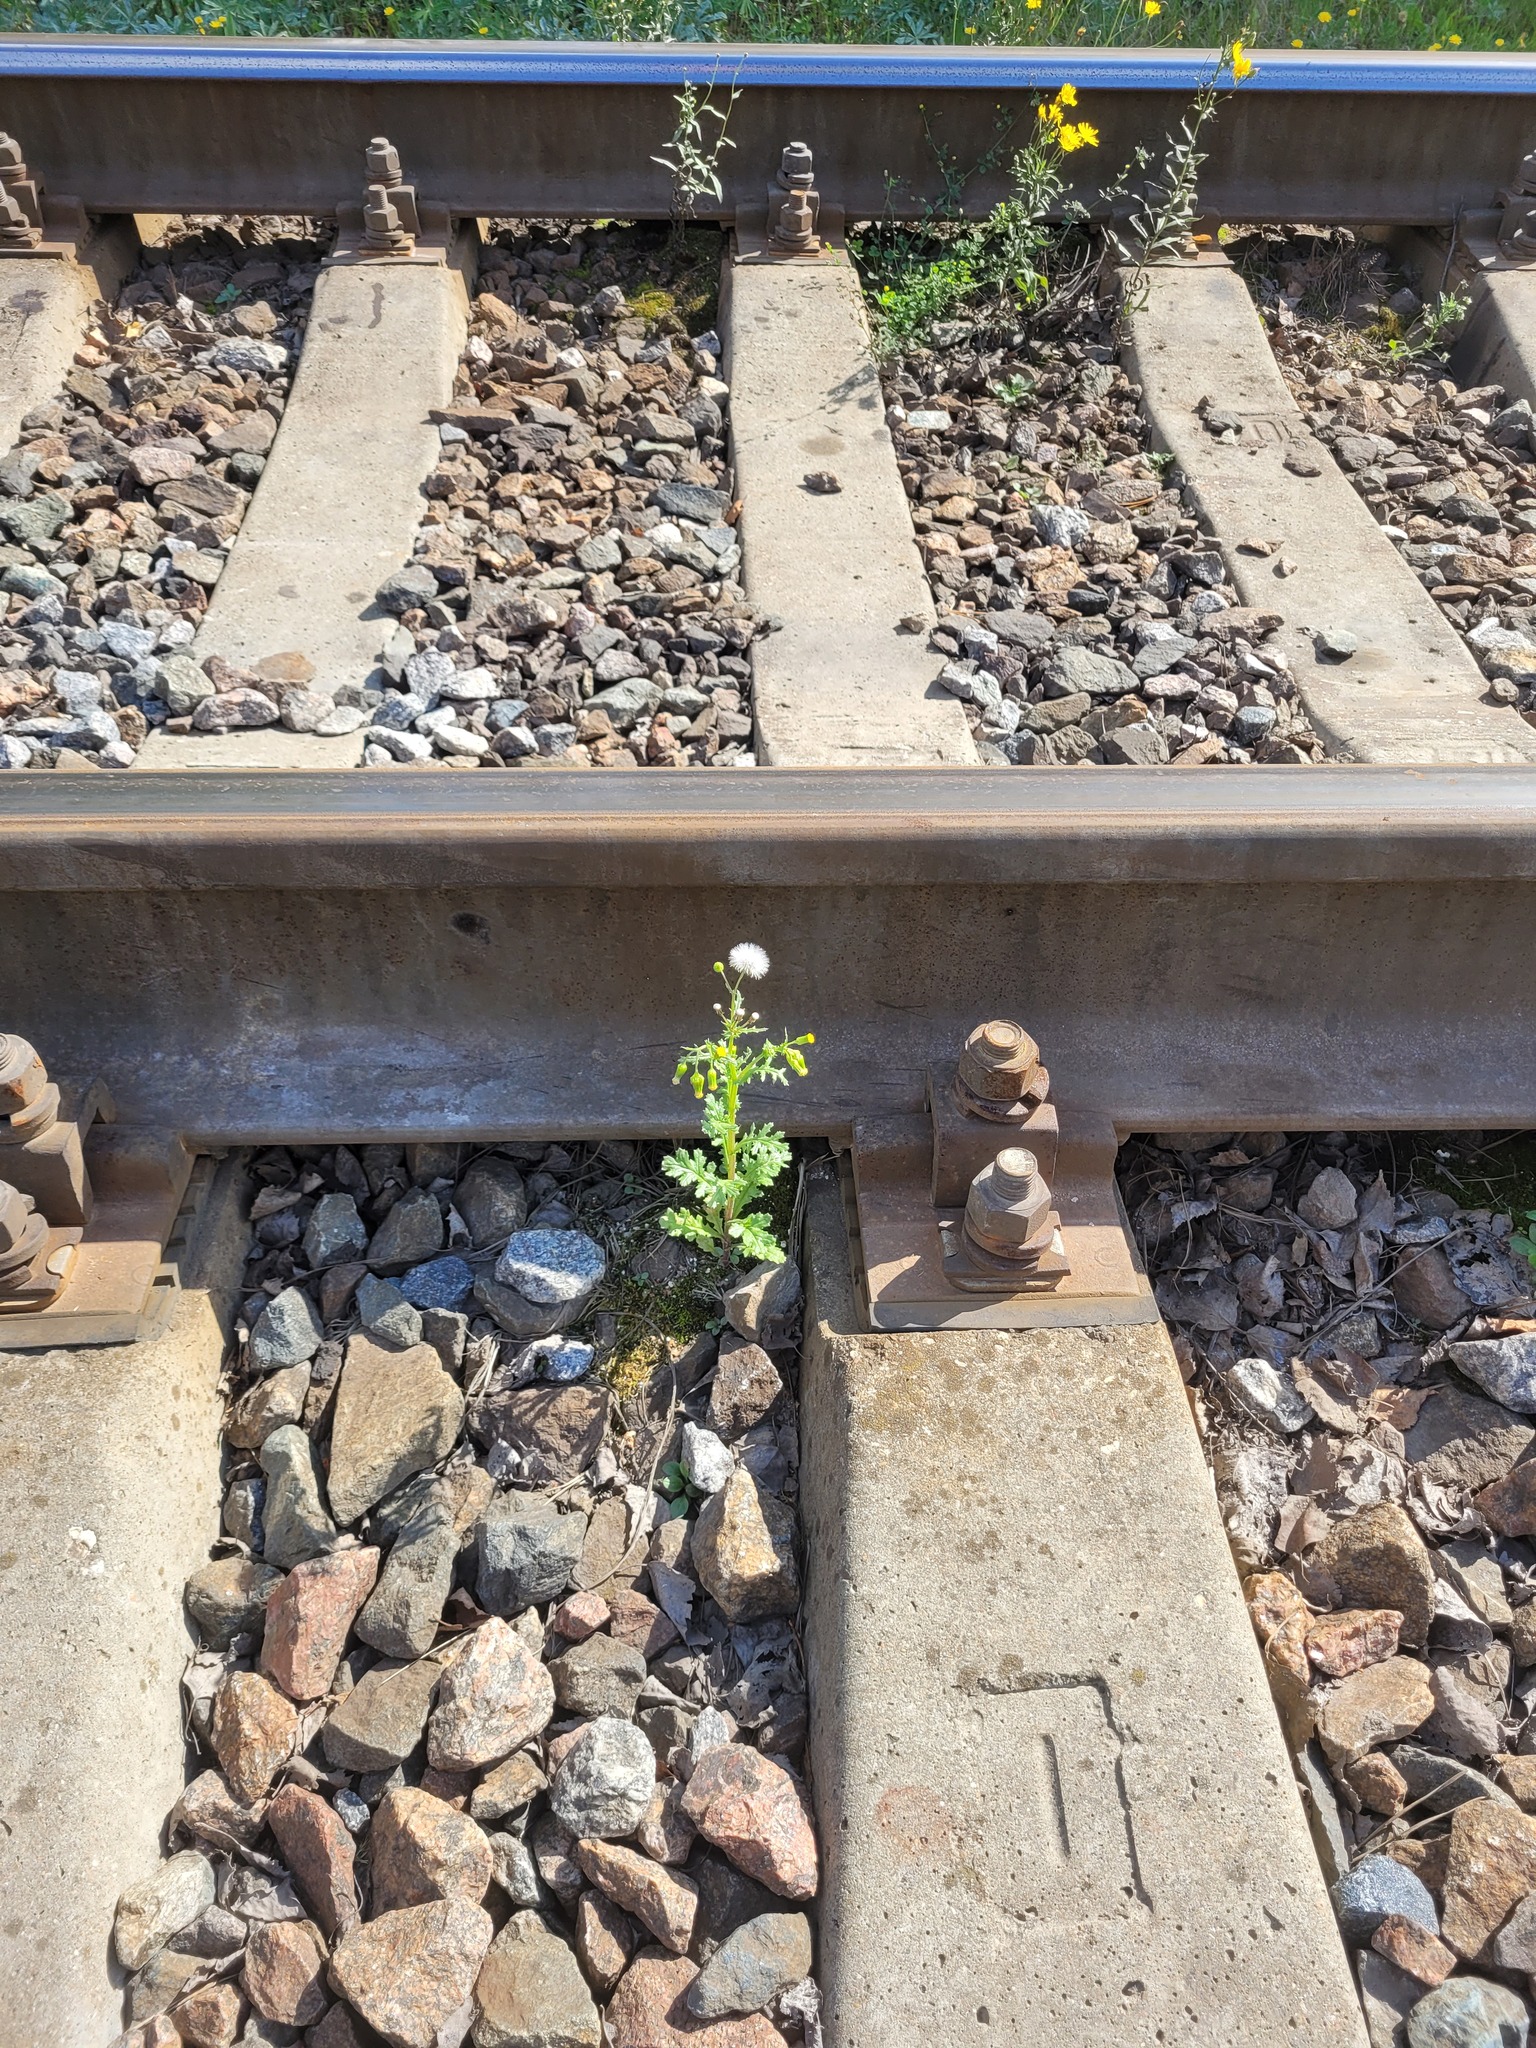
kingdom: Plantae
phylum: Tracheophyta
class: Magnoliopsida
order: Asterales
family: Asteraceae
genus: Senecio
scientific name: Senecio vulgaris
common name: Old-man-in-the-spring
